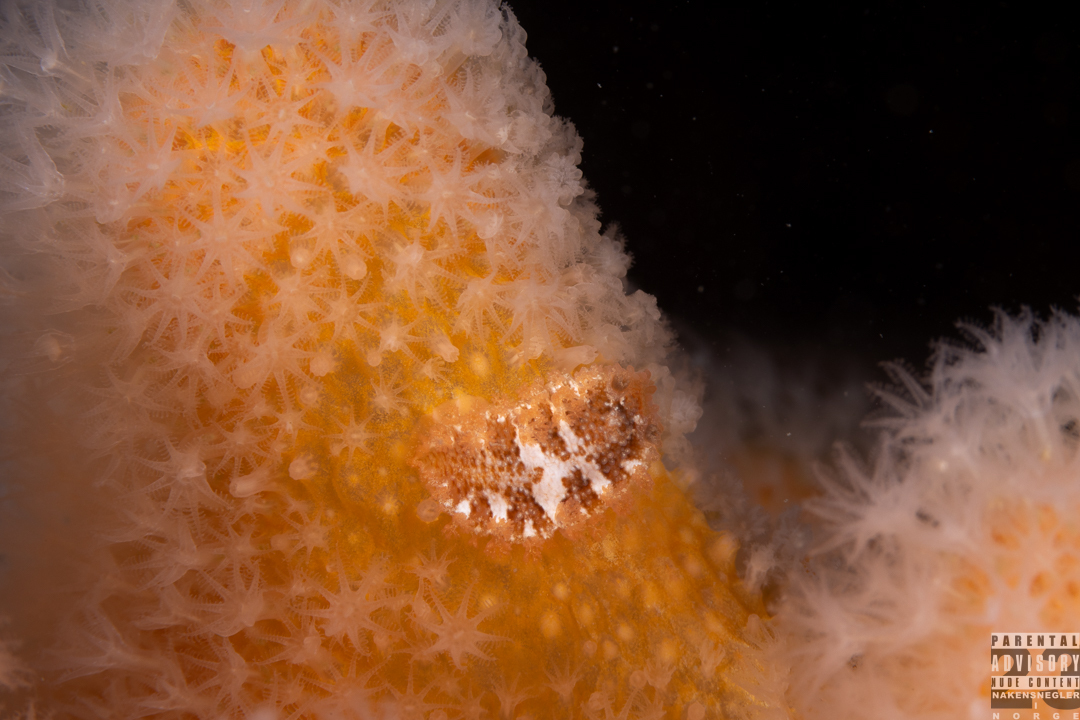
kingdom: Animalia
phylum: Mollusca
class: Gastropoda
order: Nudibranchia
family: Tritoniidae
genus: Tritonia
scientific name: Tritonia hombergii
